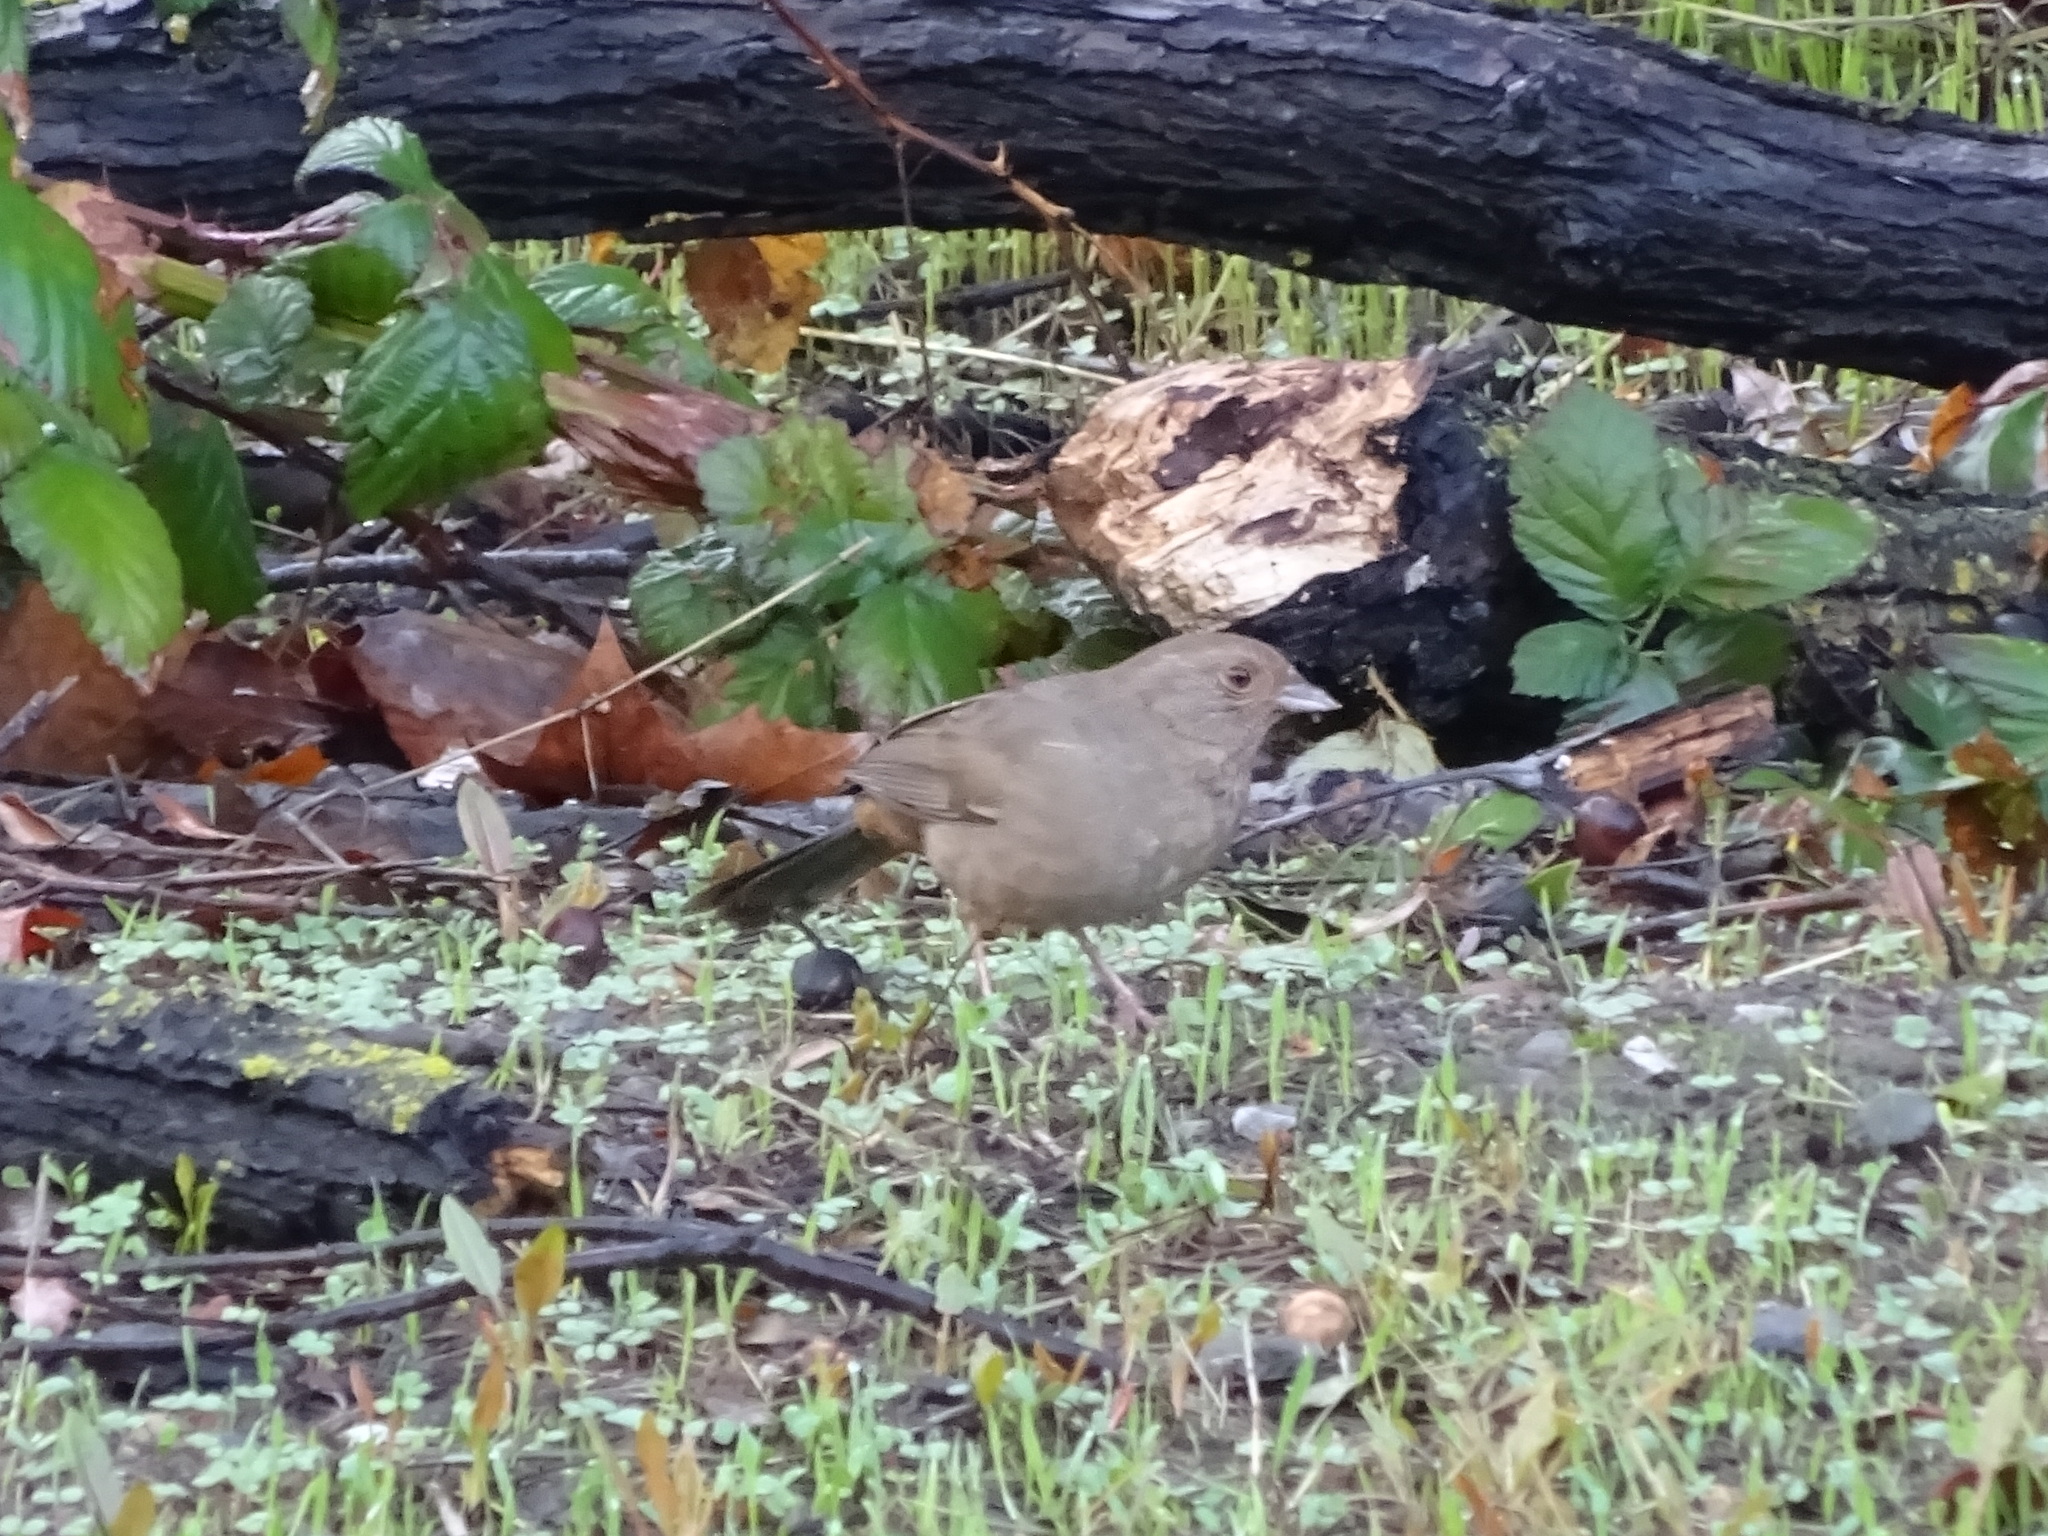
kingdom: Animalia
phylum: Chordata
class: Aves
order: Passeriformes
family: Passerellidae
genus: Melozone
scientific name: Melozone crissalis
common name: California towhee
